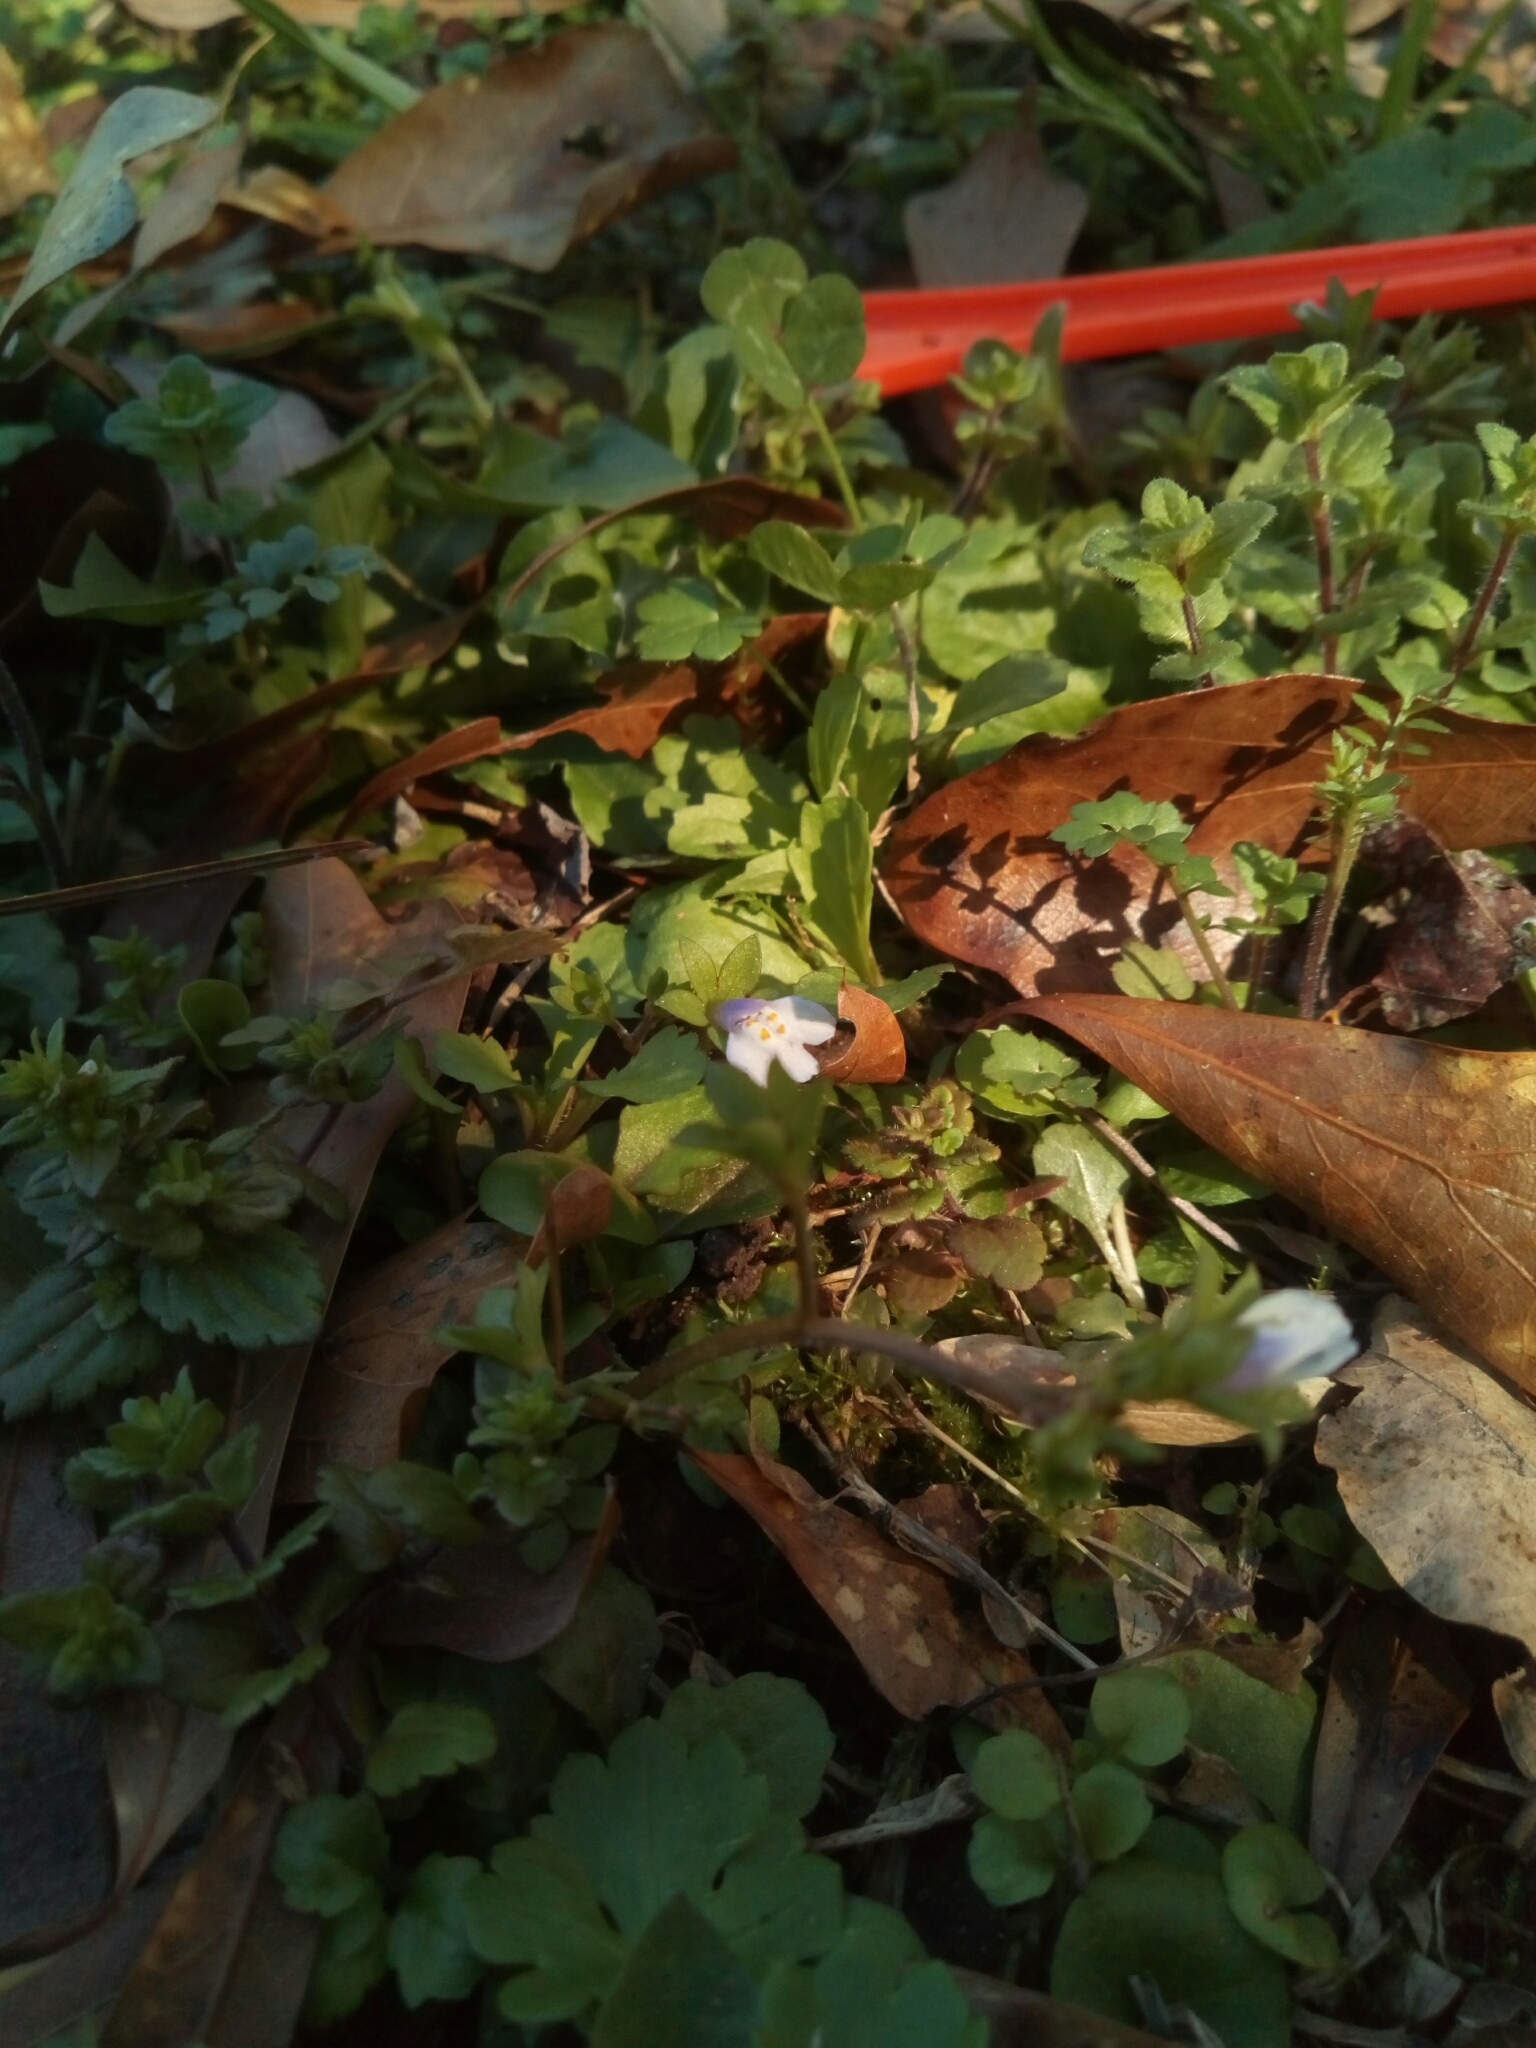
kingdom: Plantae
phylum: Tracheophyta
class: Magnoliopsida
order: Lamiales
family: Mazaceae
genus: Mazus
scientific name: Mazus pumilus
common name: Japanese mazus
